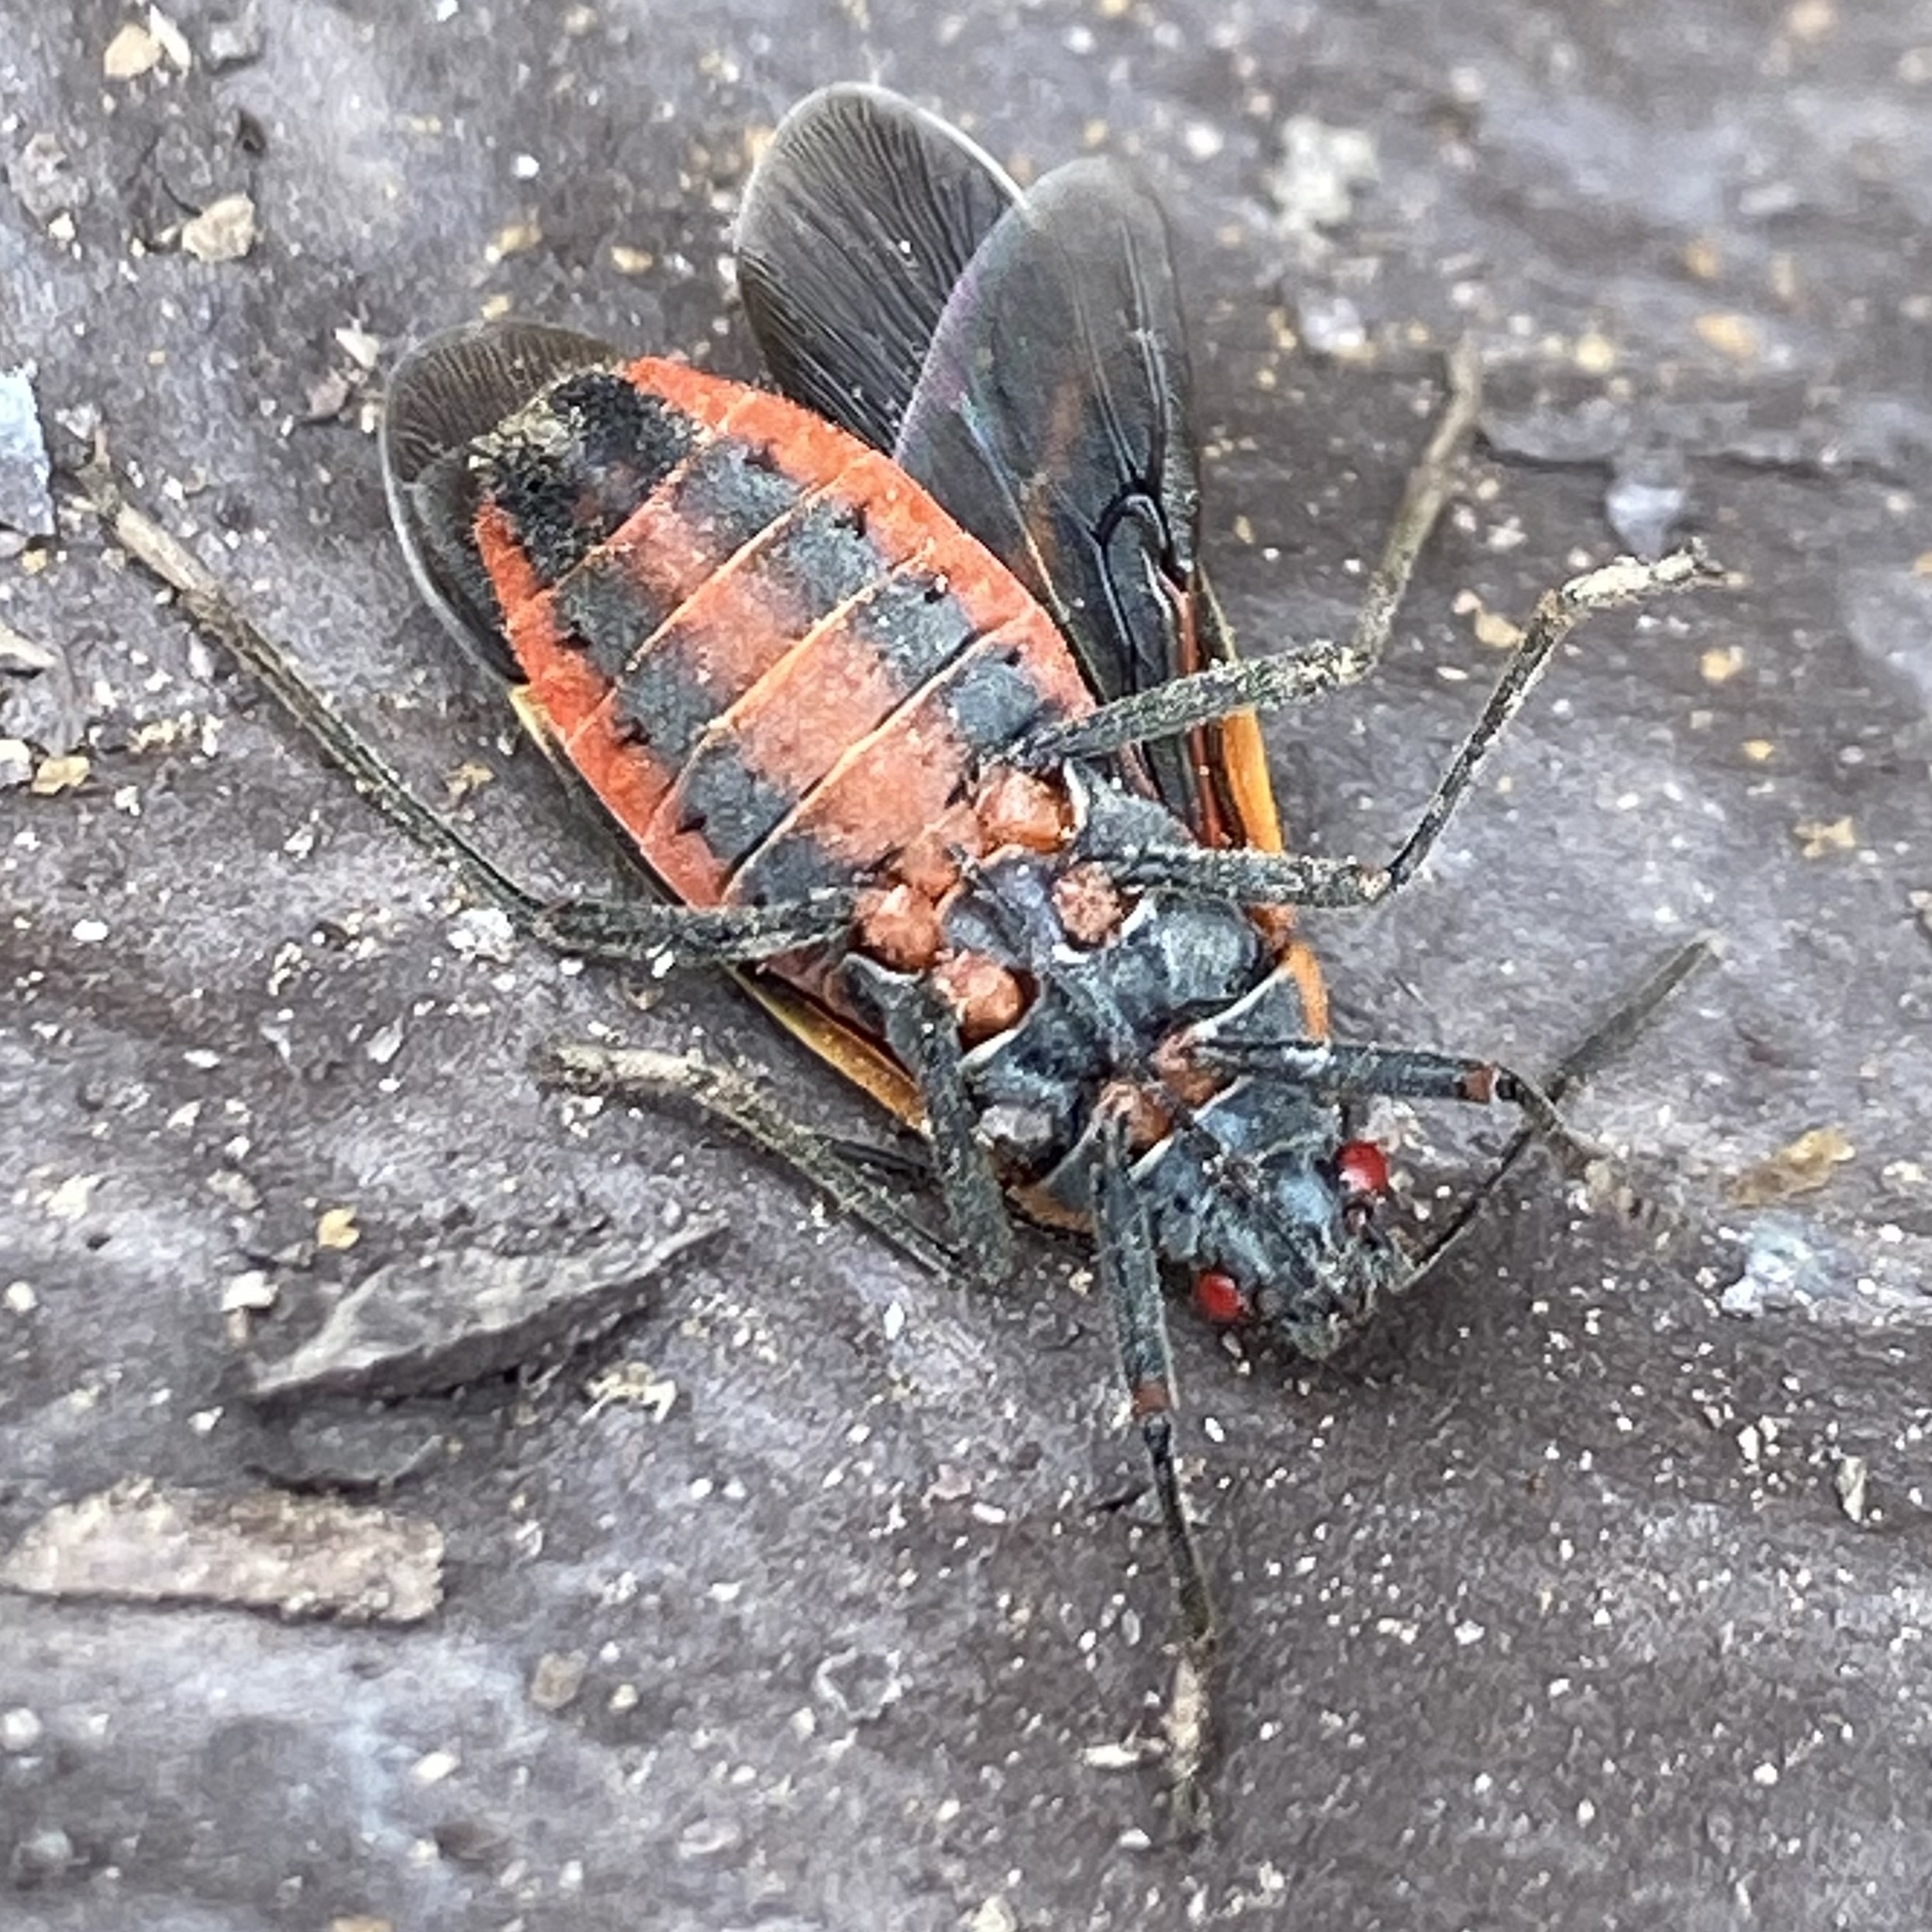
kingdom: Animalia
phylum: Arthropoda
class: Insecta
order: Hemiptera
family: Rhopalidae
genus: Boisea
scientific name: Boisea trivittata
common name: Boxelder bug
